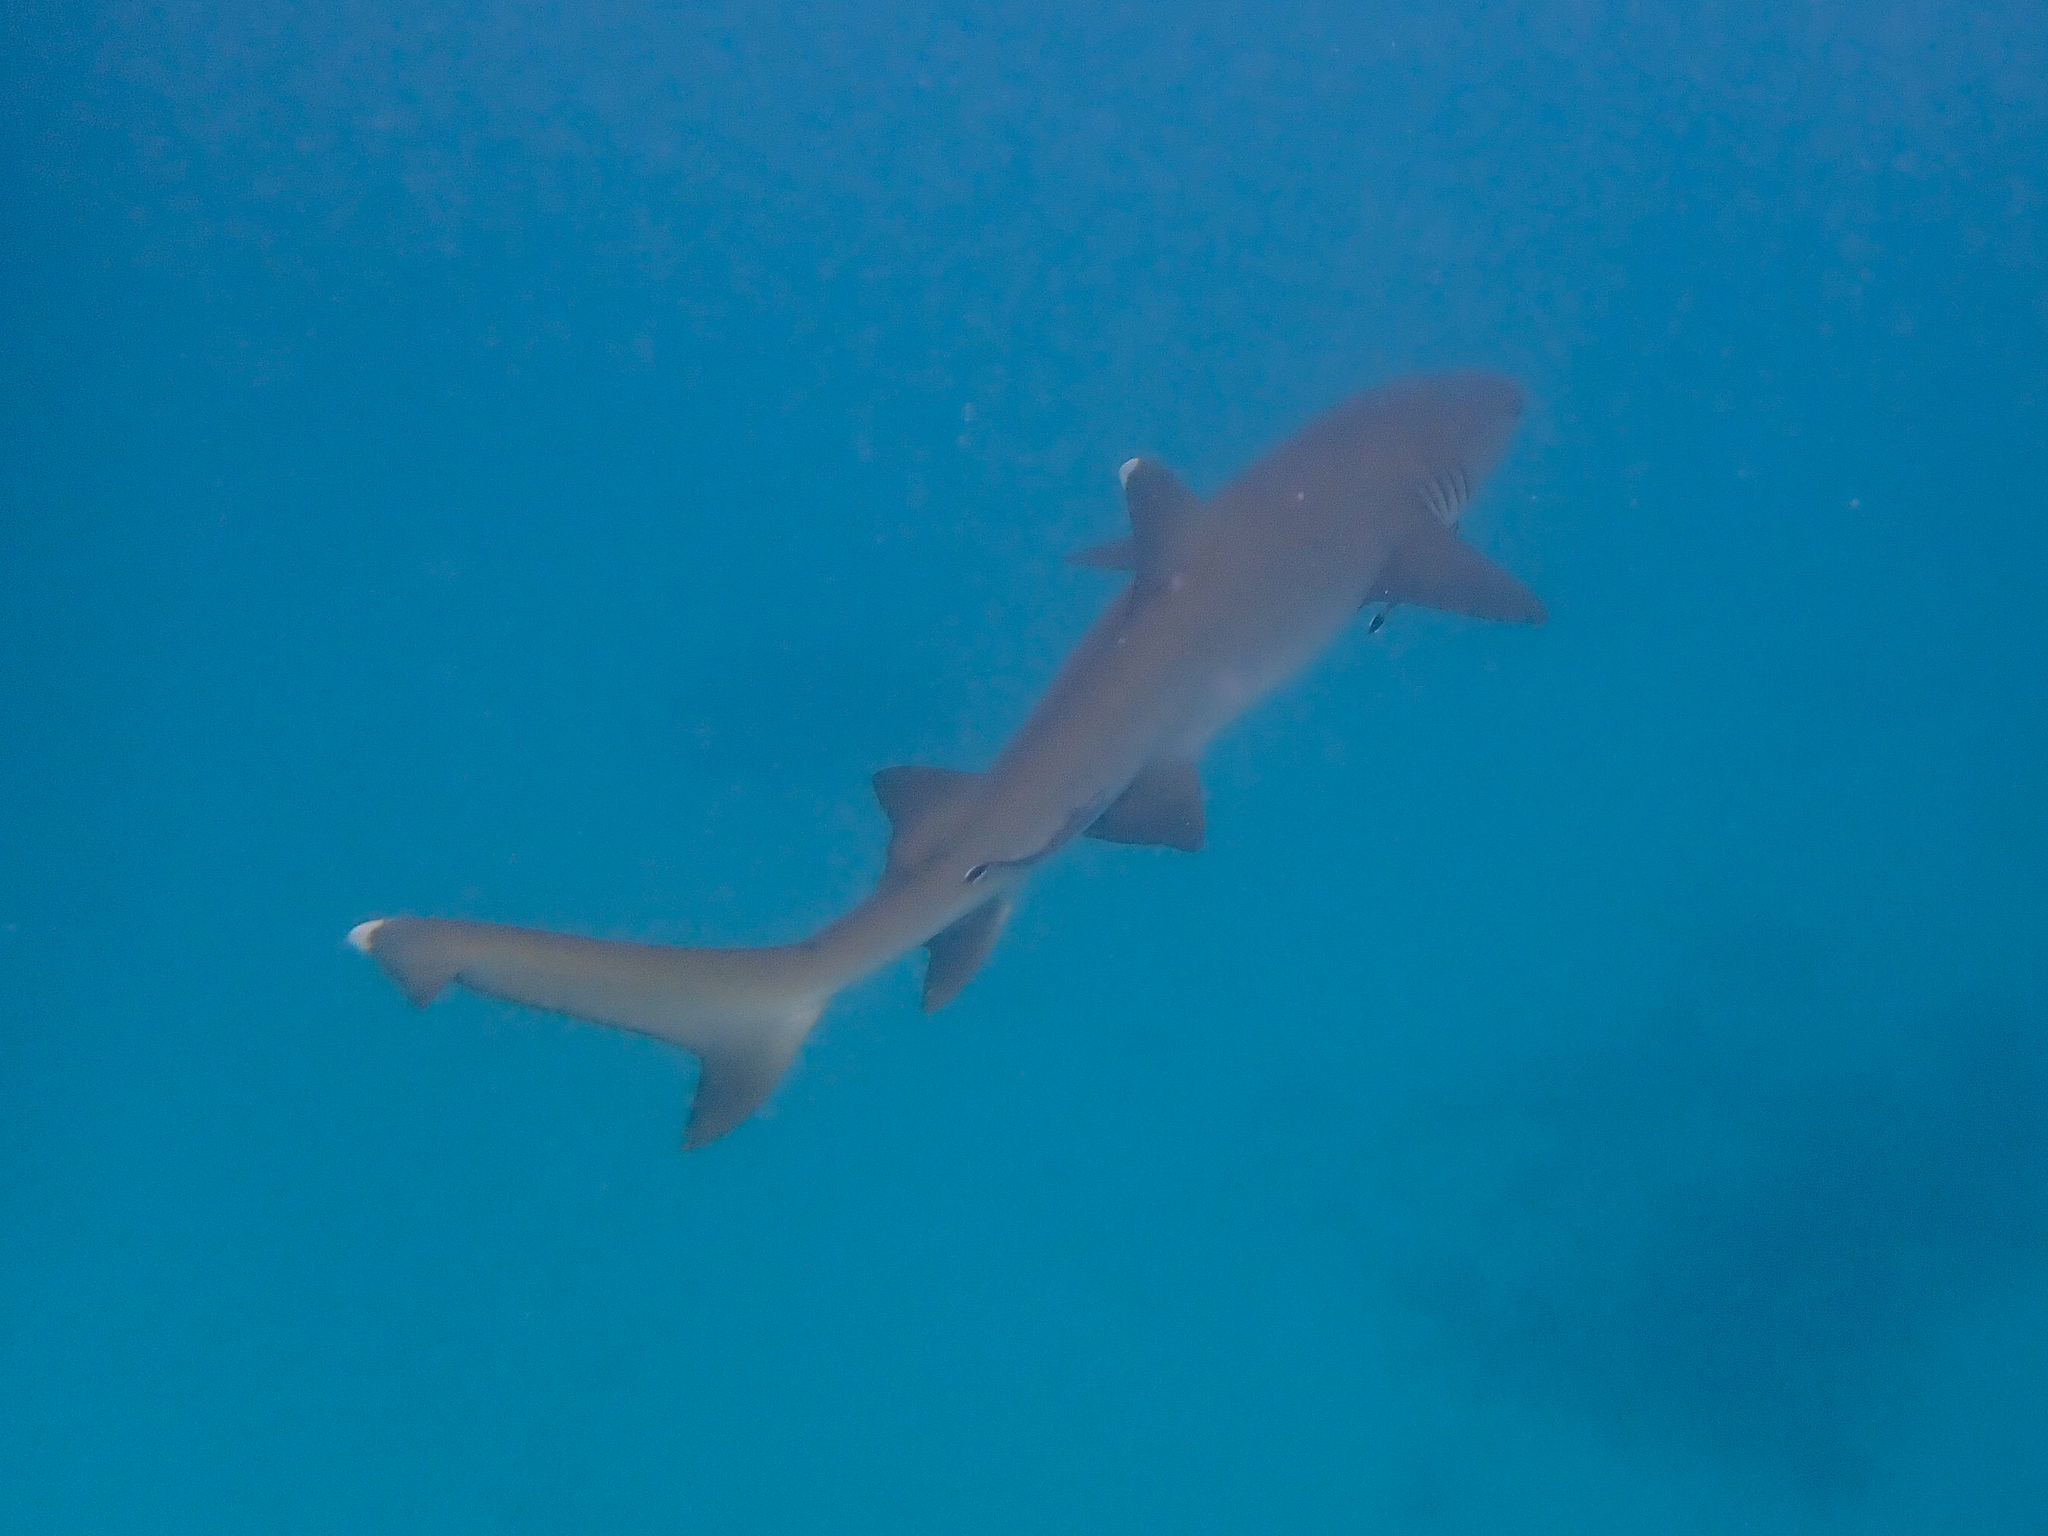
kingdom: Animalia
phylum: Chordata
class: Elasmobranchii
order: Carcharhiniformes
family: Carcharhinidae
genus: Triaenodon
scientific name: Triaenodon obesus
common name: Whitetip reef shark
